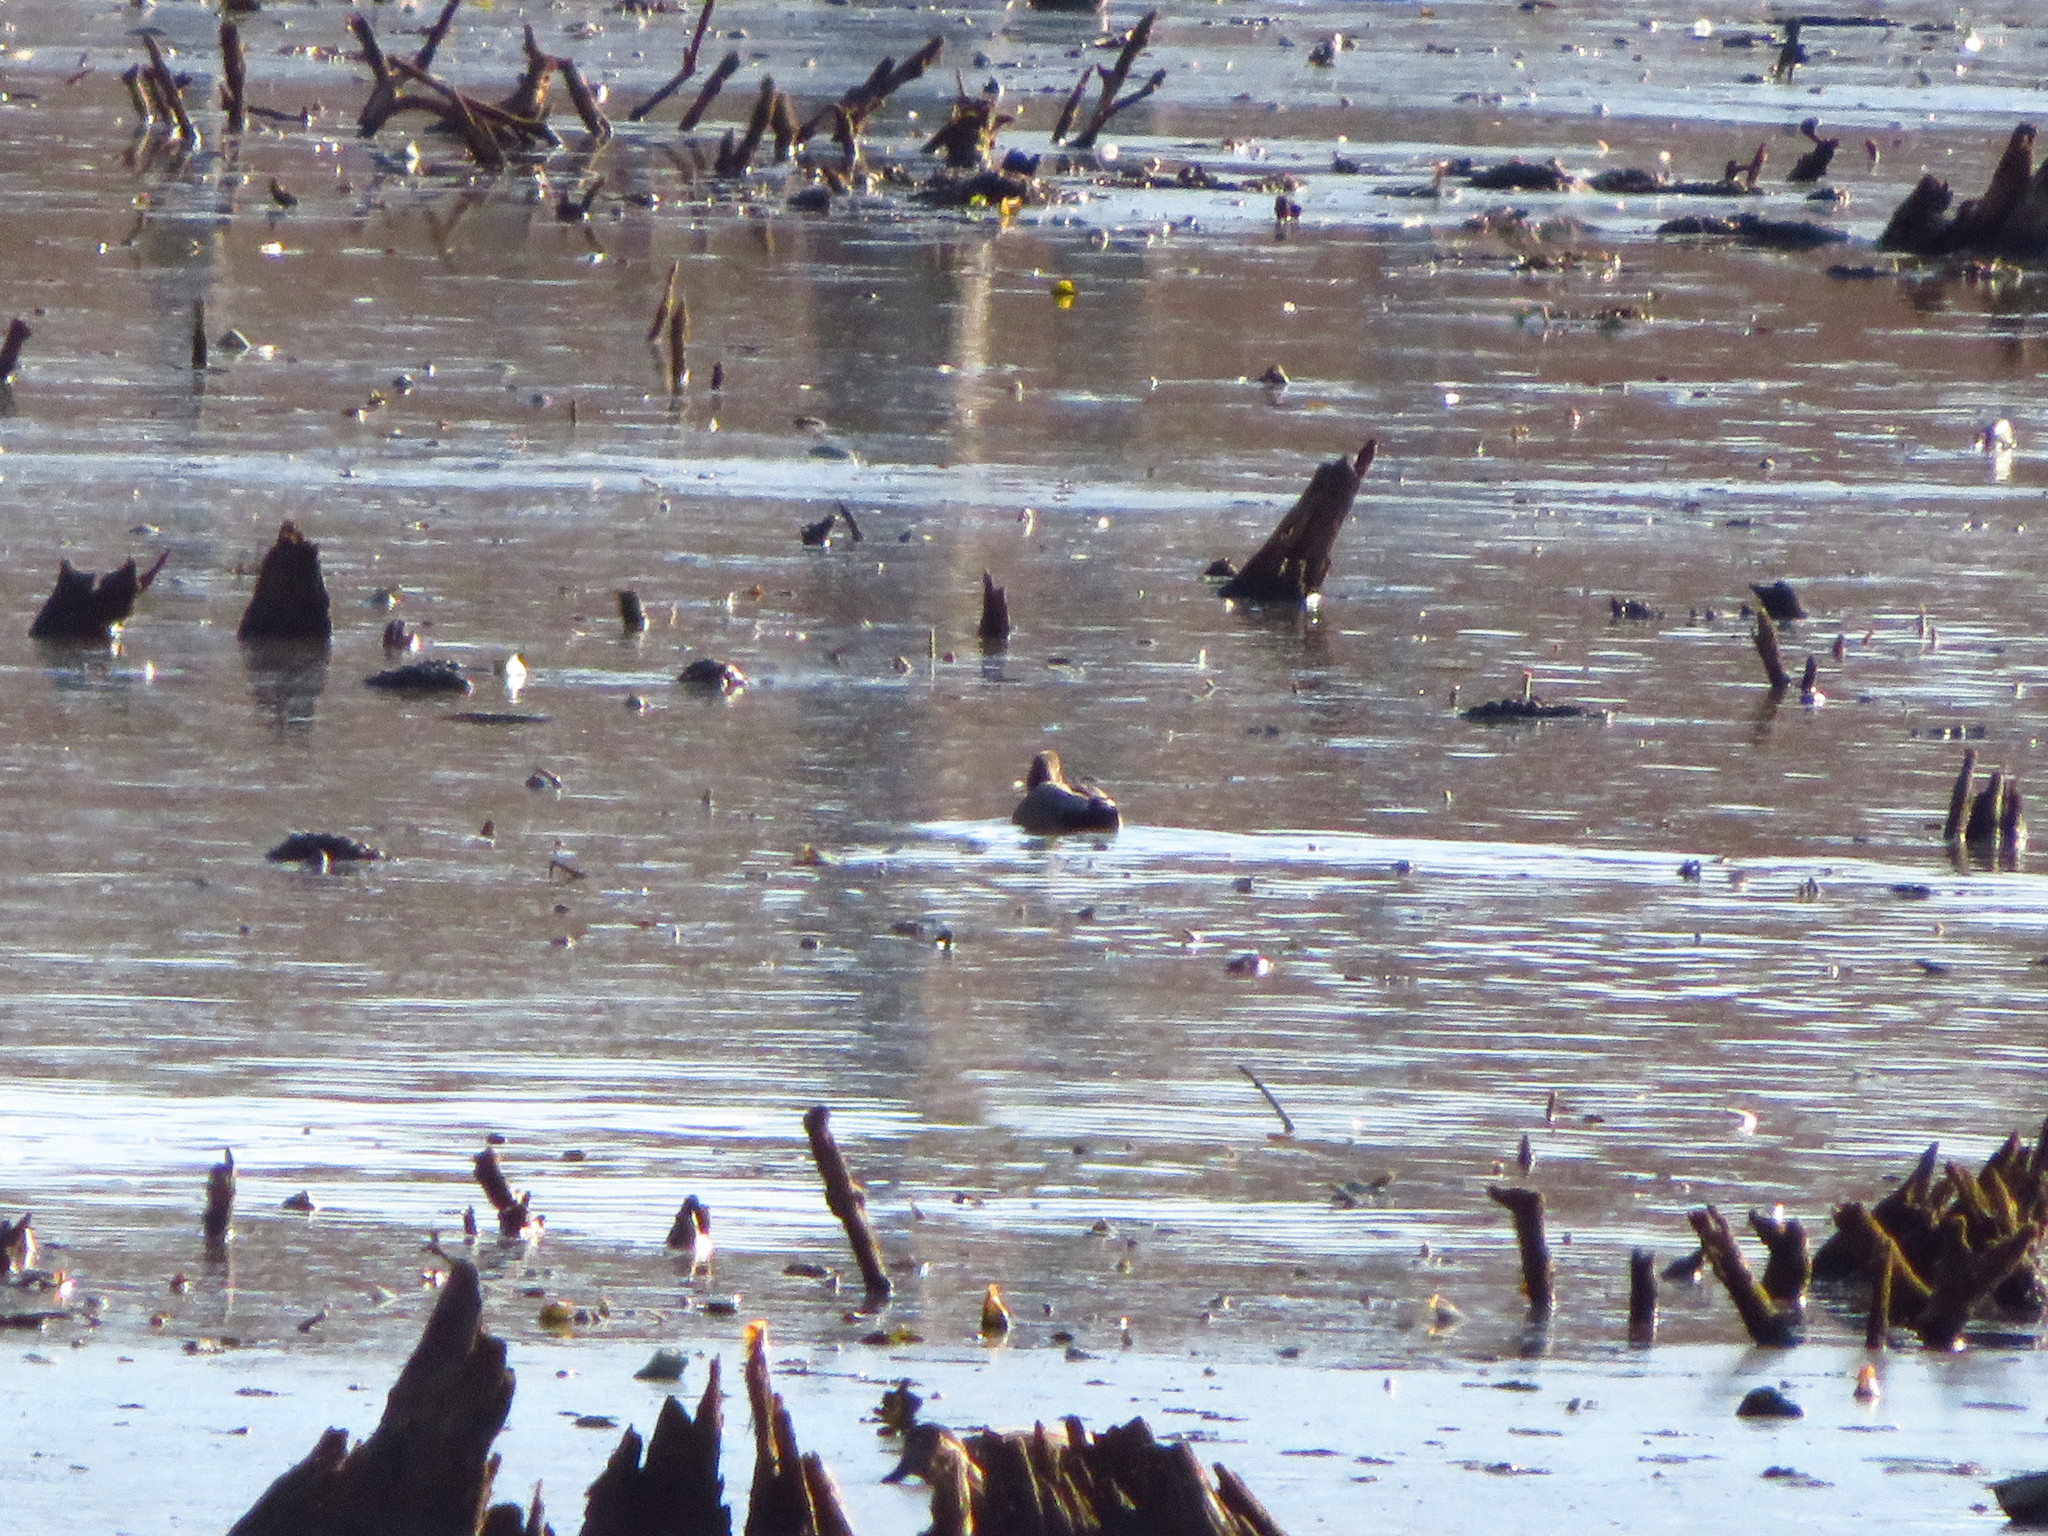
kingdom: Animalia
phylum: Chordata
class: Aves
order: Anseriformes
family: Anatidae
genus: Mareca
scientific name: Mareca strepera
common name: Gadwall
